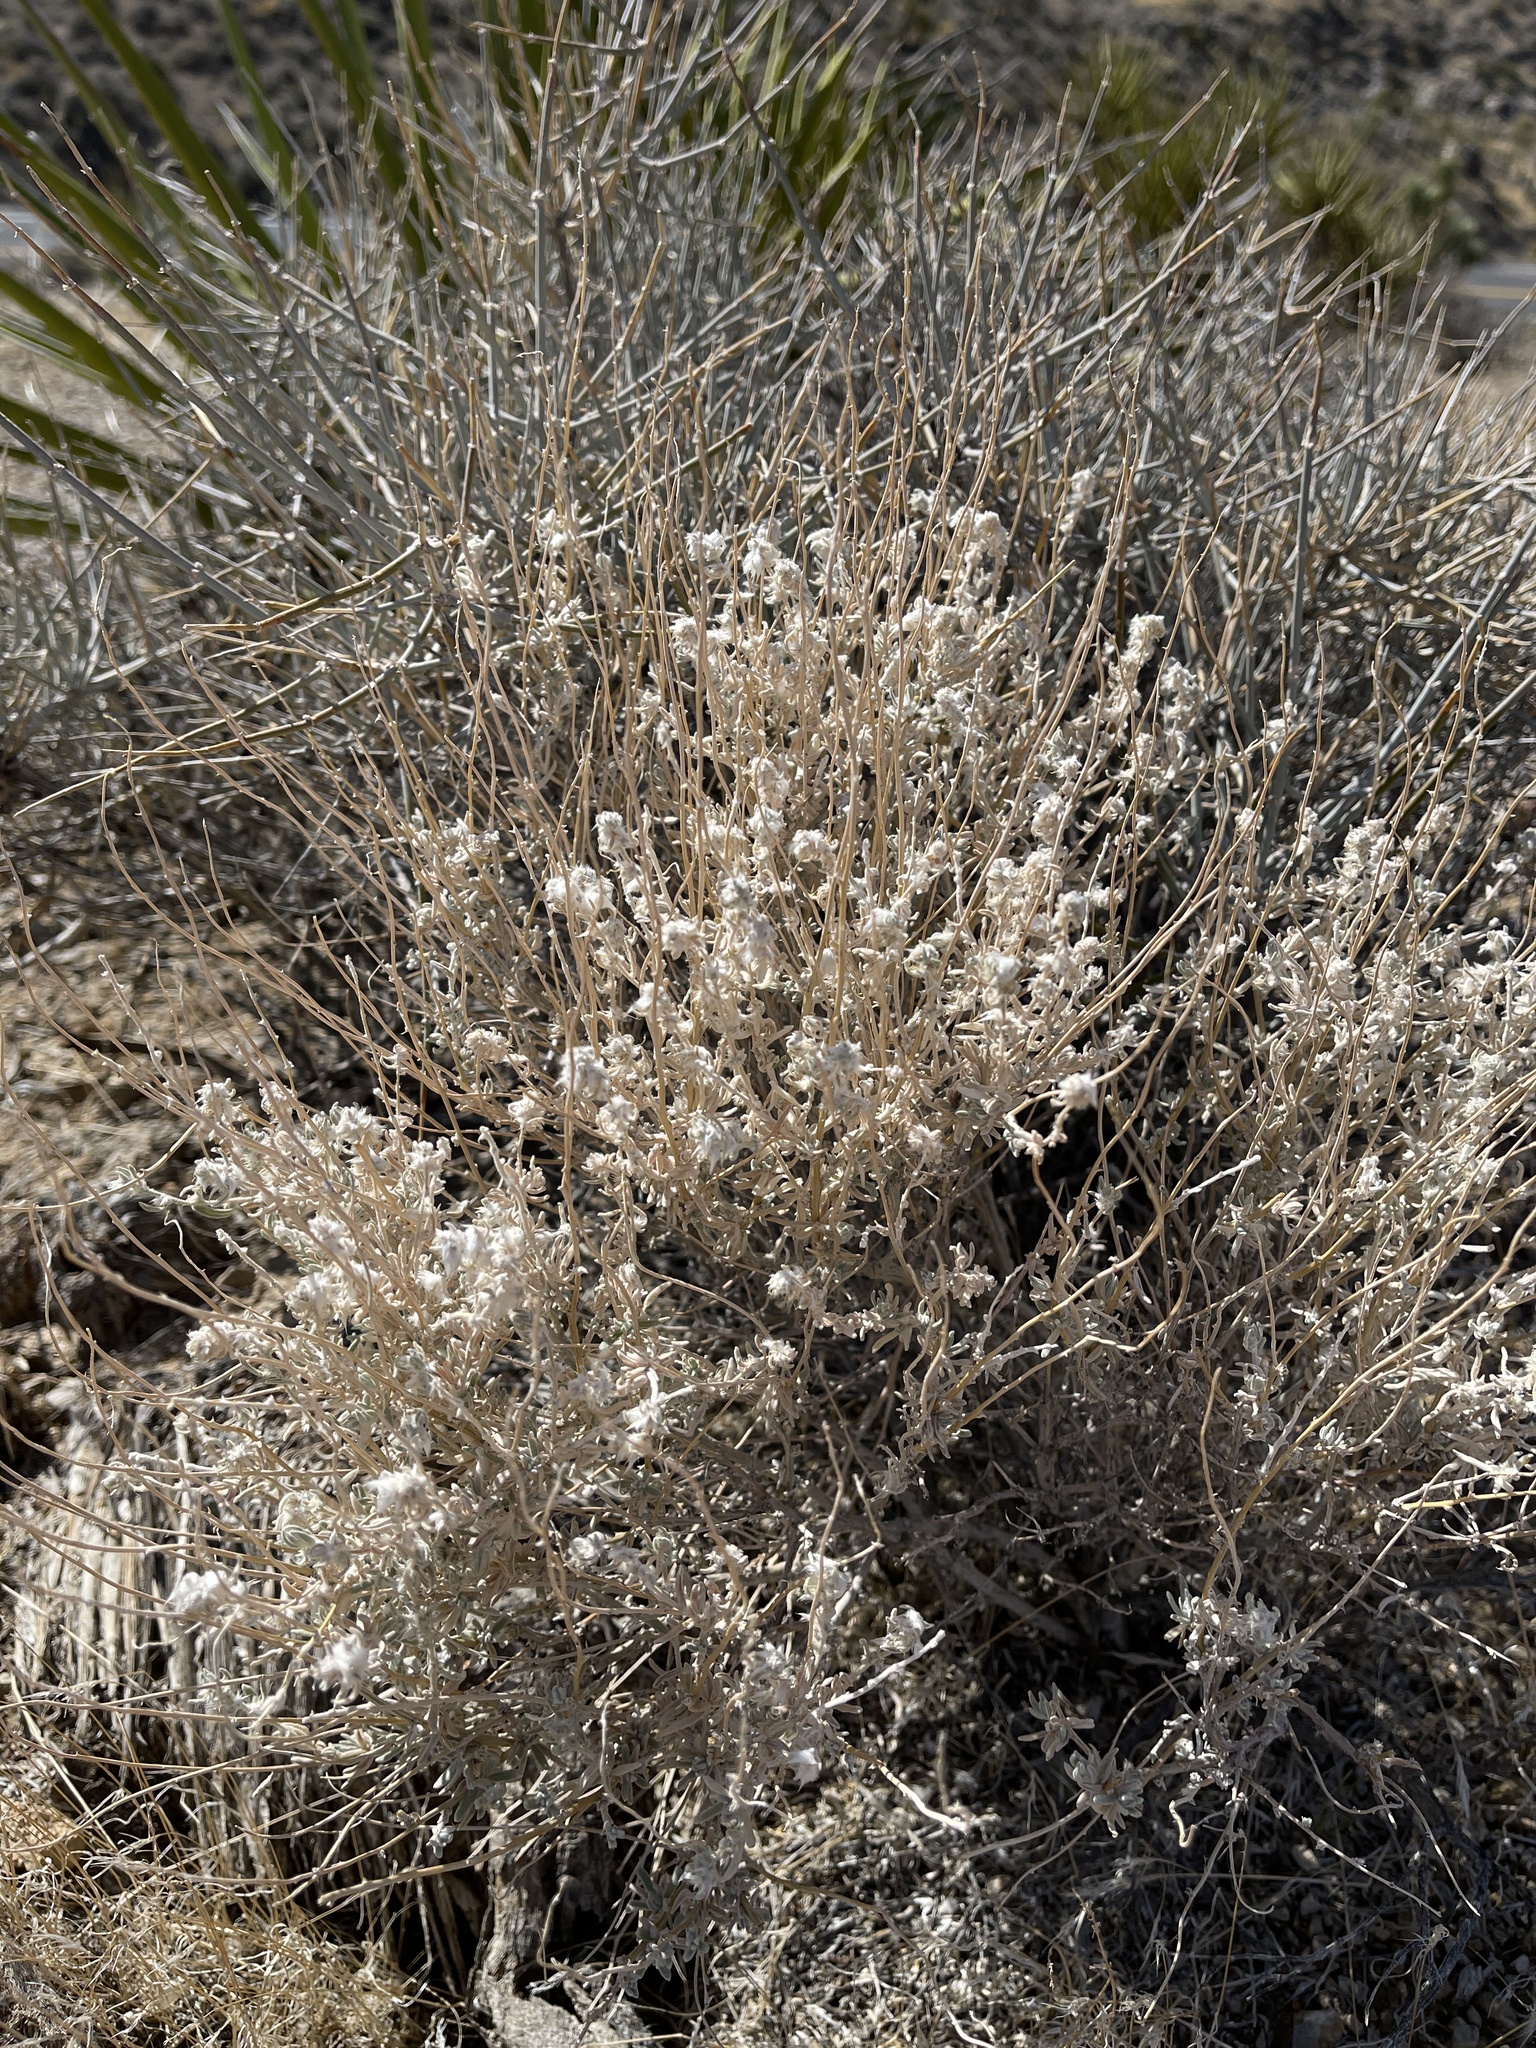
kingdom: Plantae
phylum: Tracheophyta
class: Magnoliopsida
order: Caryophyllales
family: Amaranthaceae
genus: Krascheninnikovia
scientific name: Krascheninnikovia lanata
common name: Winterfat
